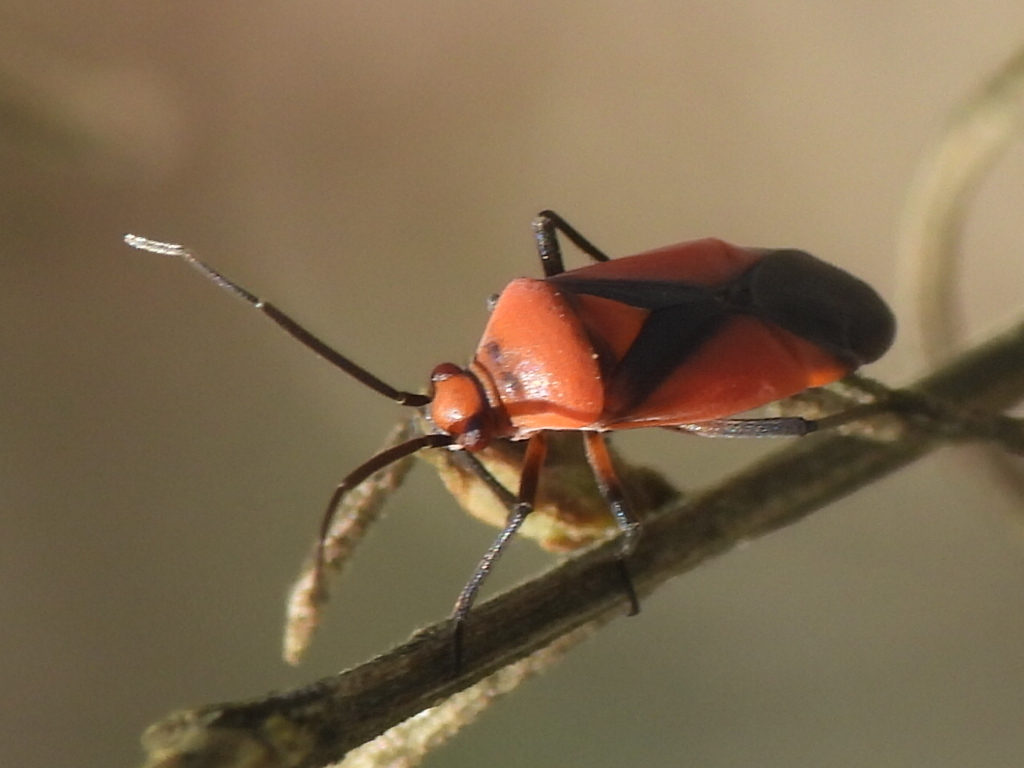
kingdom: Animalia
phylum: Arthropoda
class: Insecta
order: Hemiptera
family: Miridae
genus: Oncerometopus
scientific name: Oncerometopus nigriclavus
